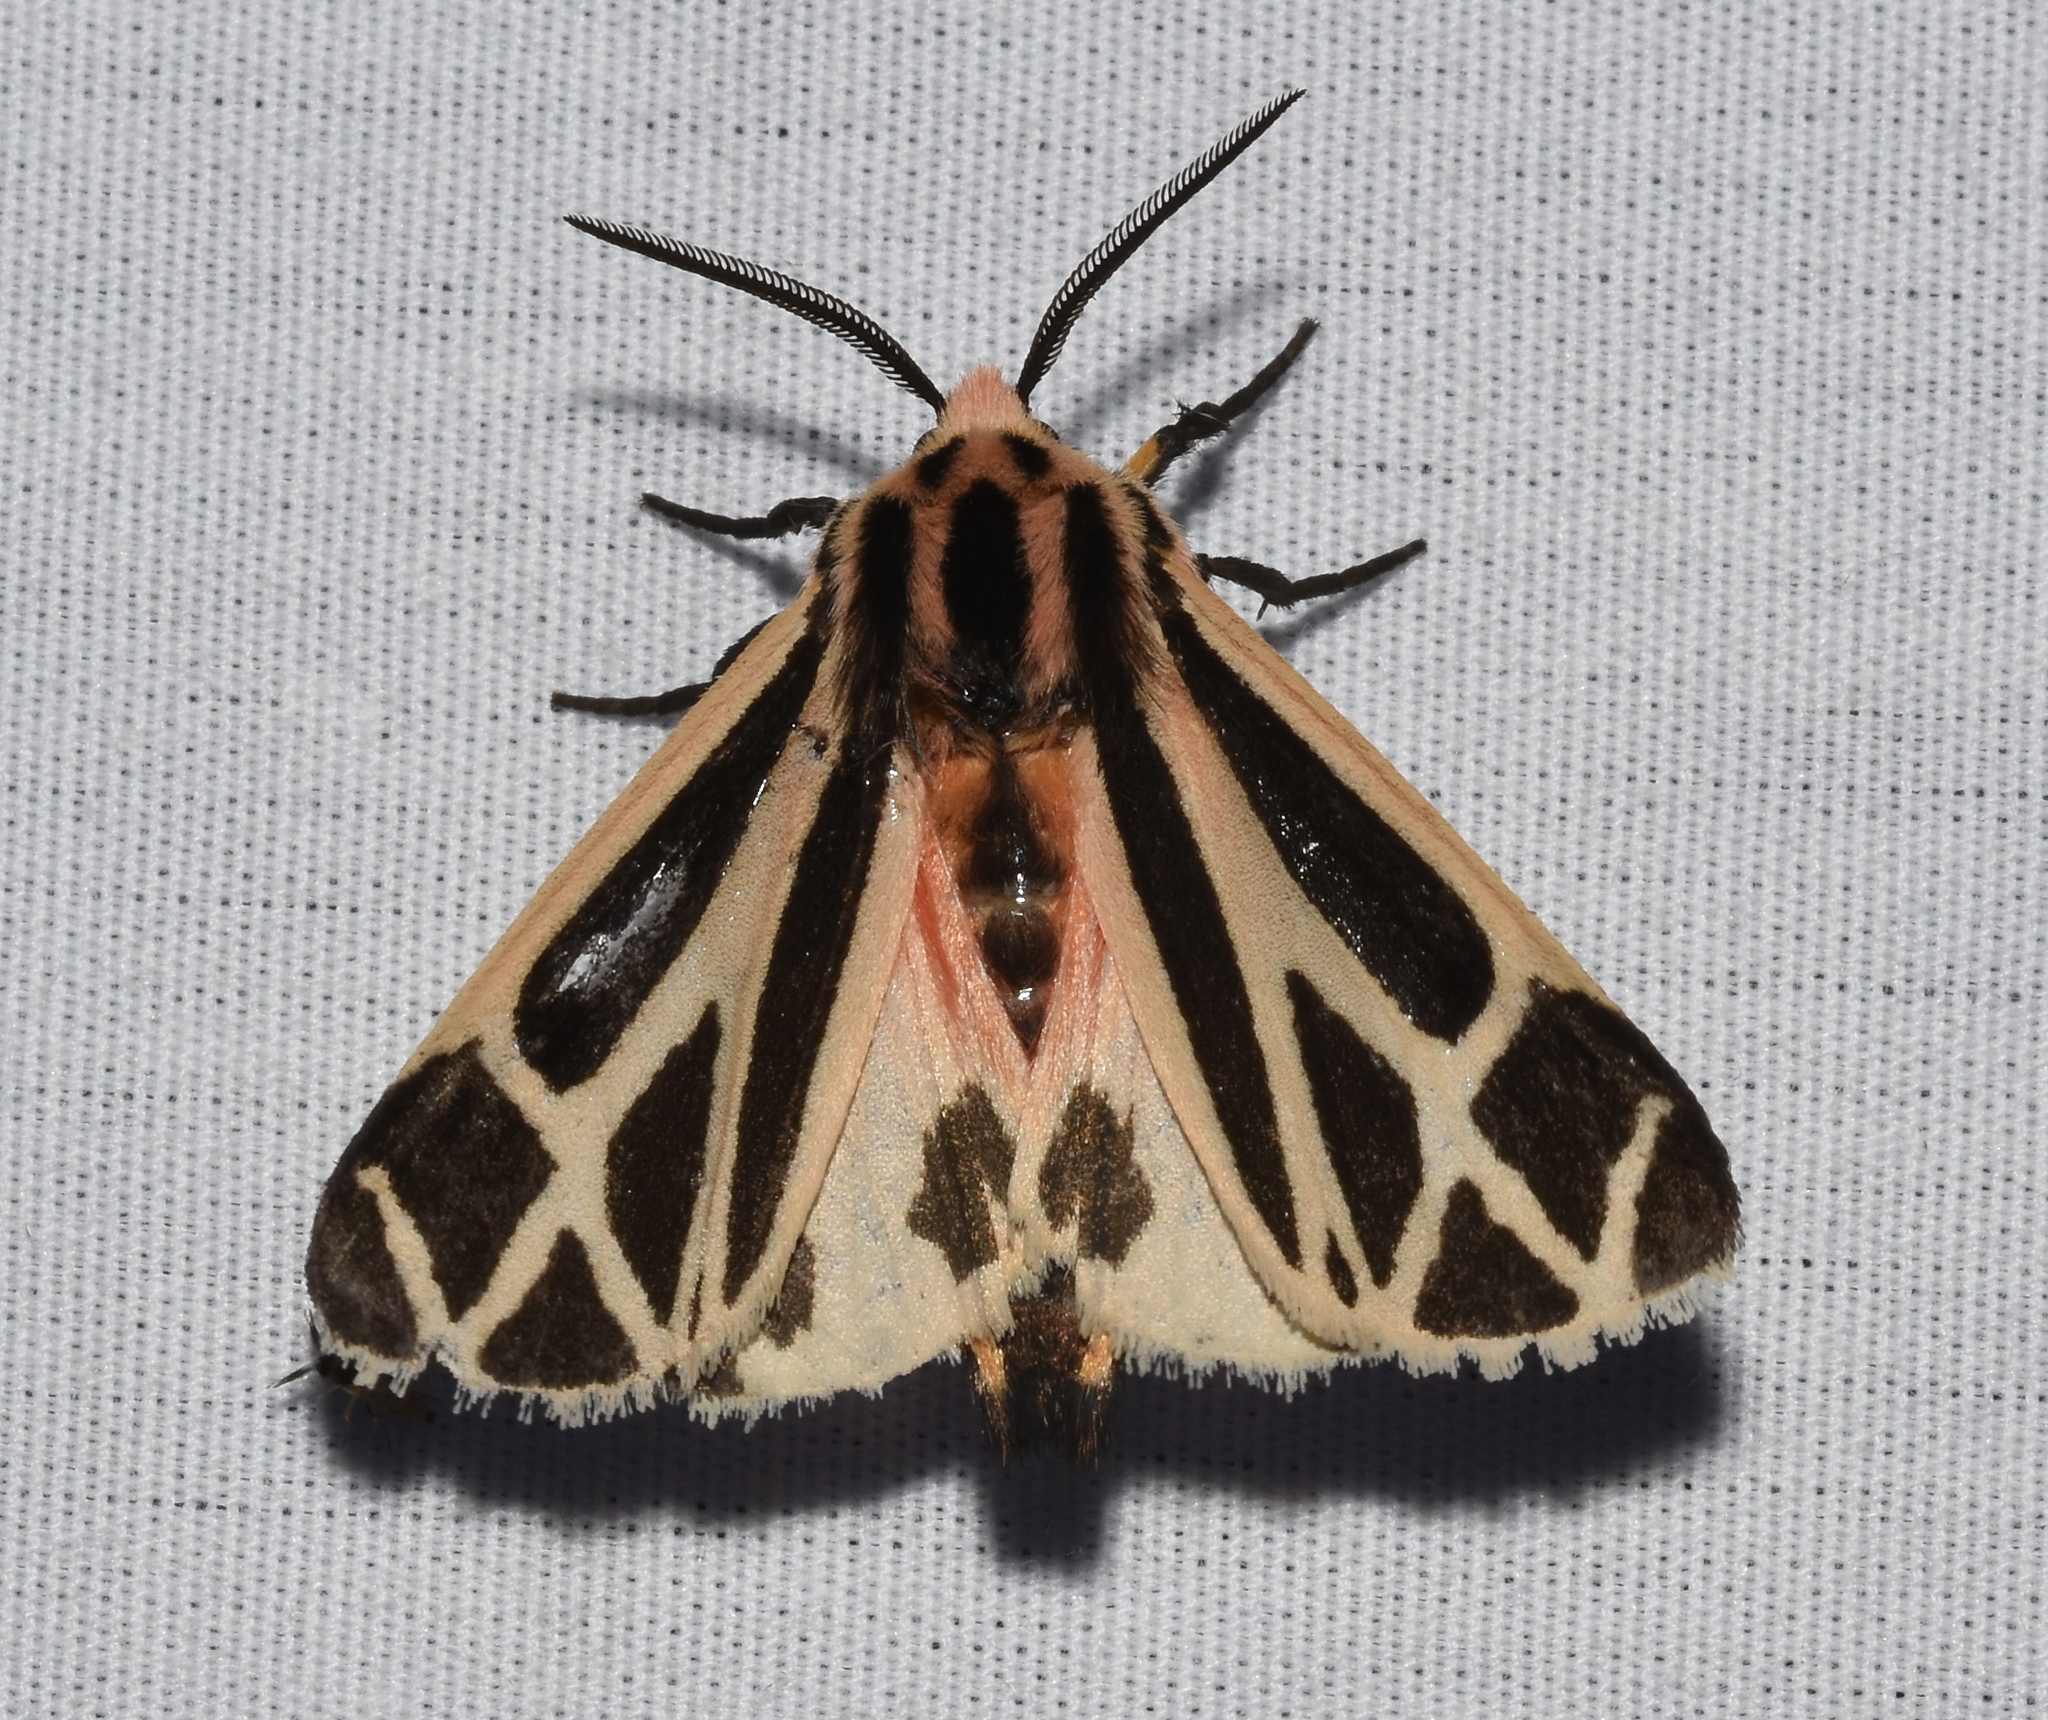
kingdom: Animalia
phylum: Arthropoda
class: Insecta
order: Lepidoptera
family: Erebidae
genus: Apantesis
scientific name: Apantesis phalerata
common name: Harnessed tiger moth
